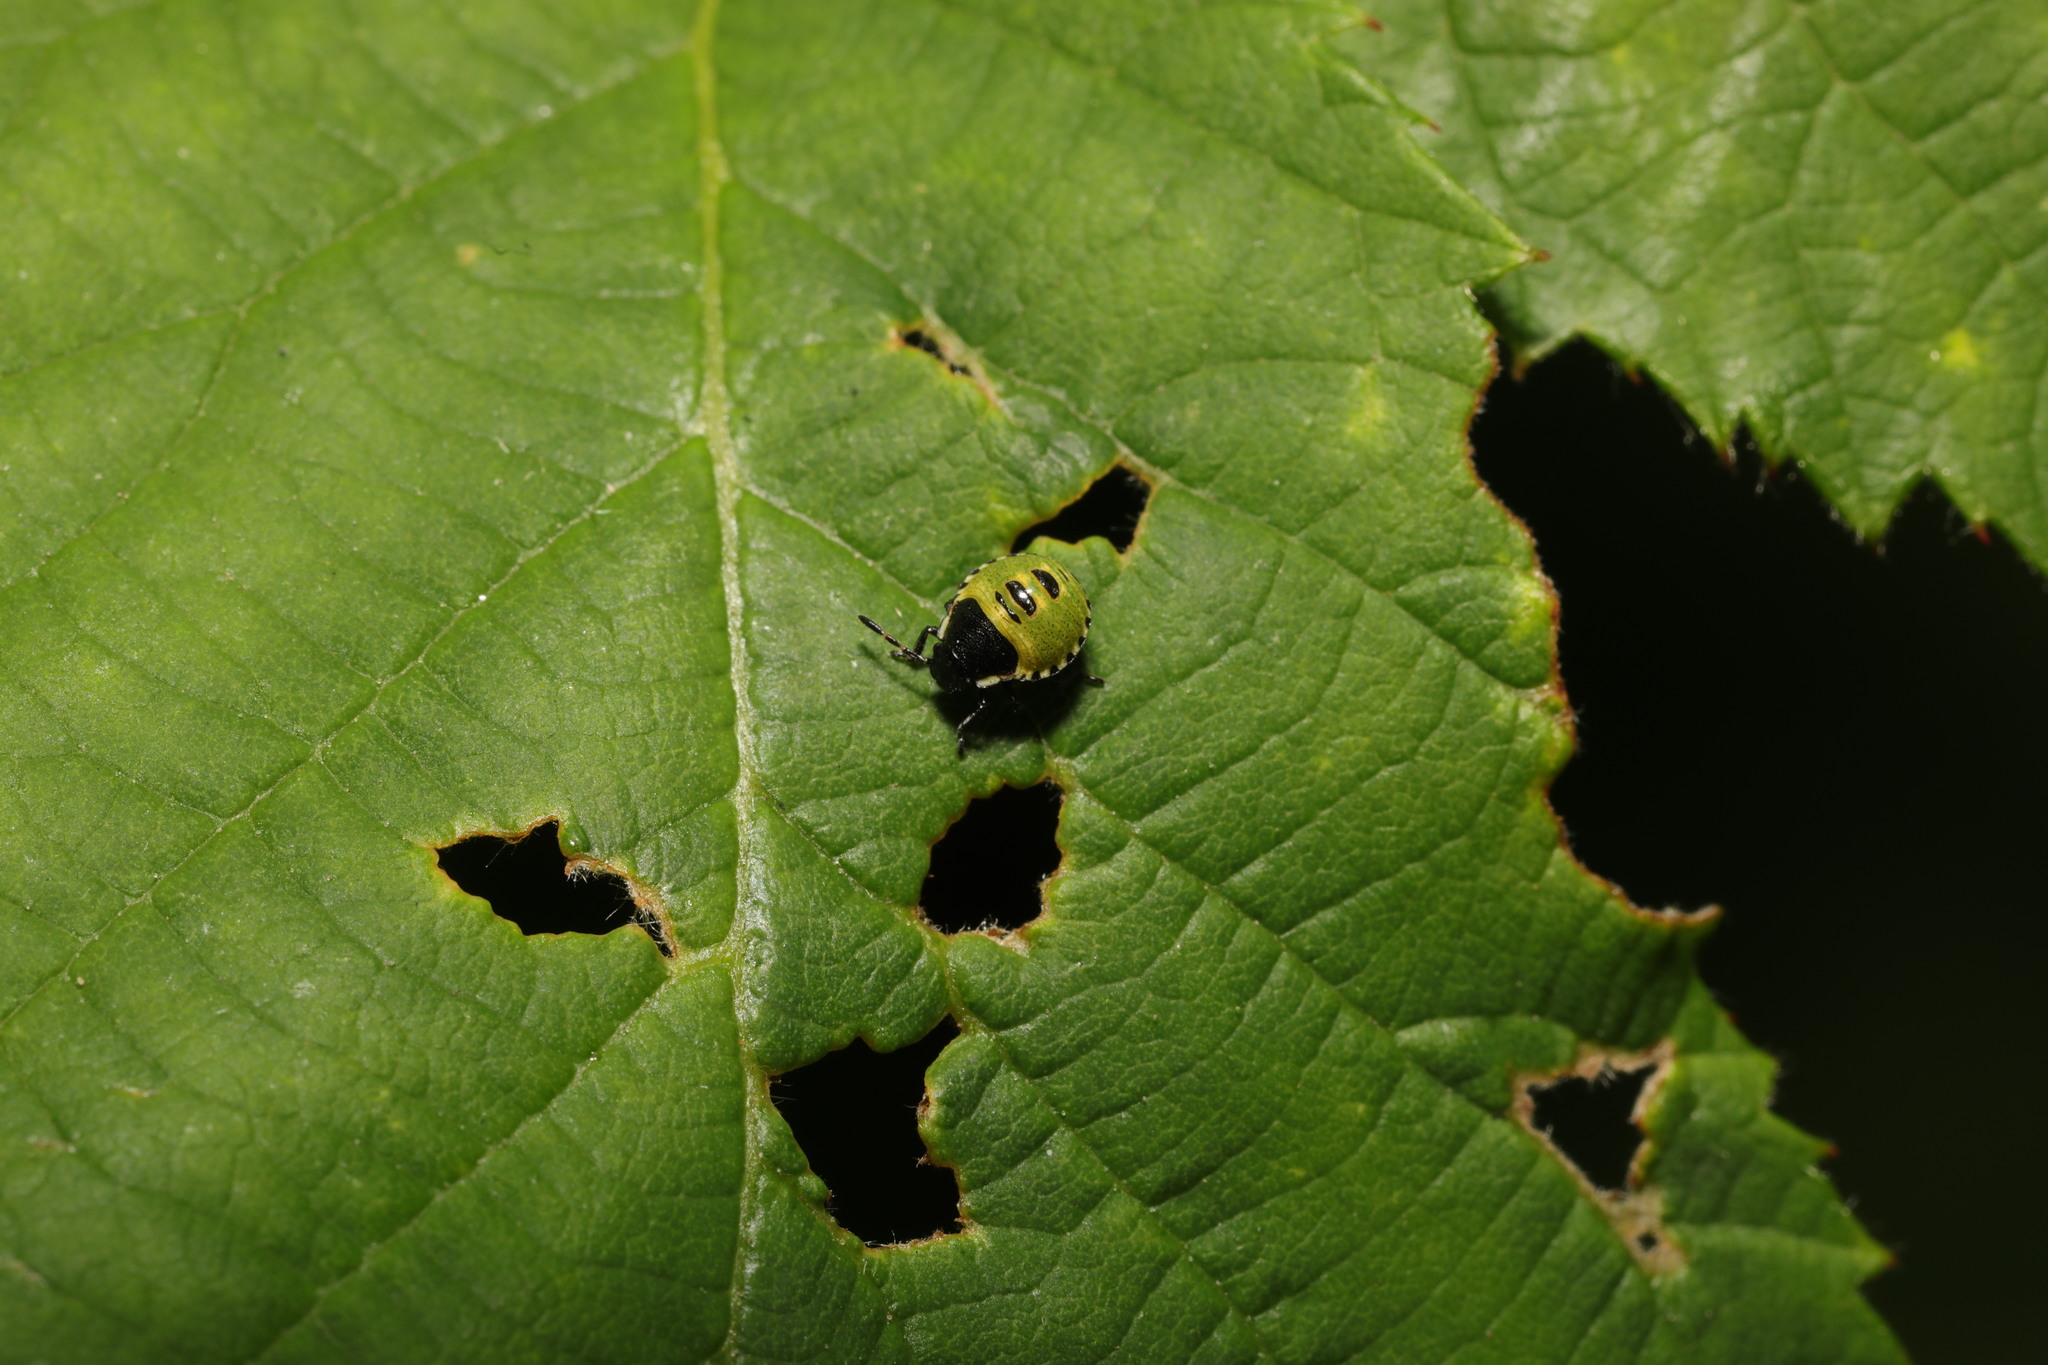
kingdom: Animalia
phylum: Arthropoda
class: Insecta
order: Hemiptera
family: Pentatomidae
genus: Palomena
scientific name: Palomena prasina
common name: Green shieldbug
